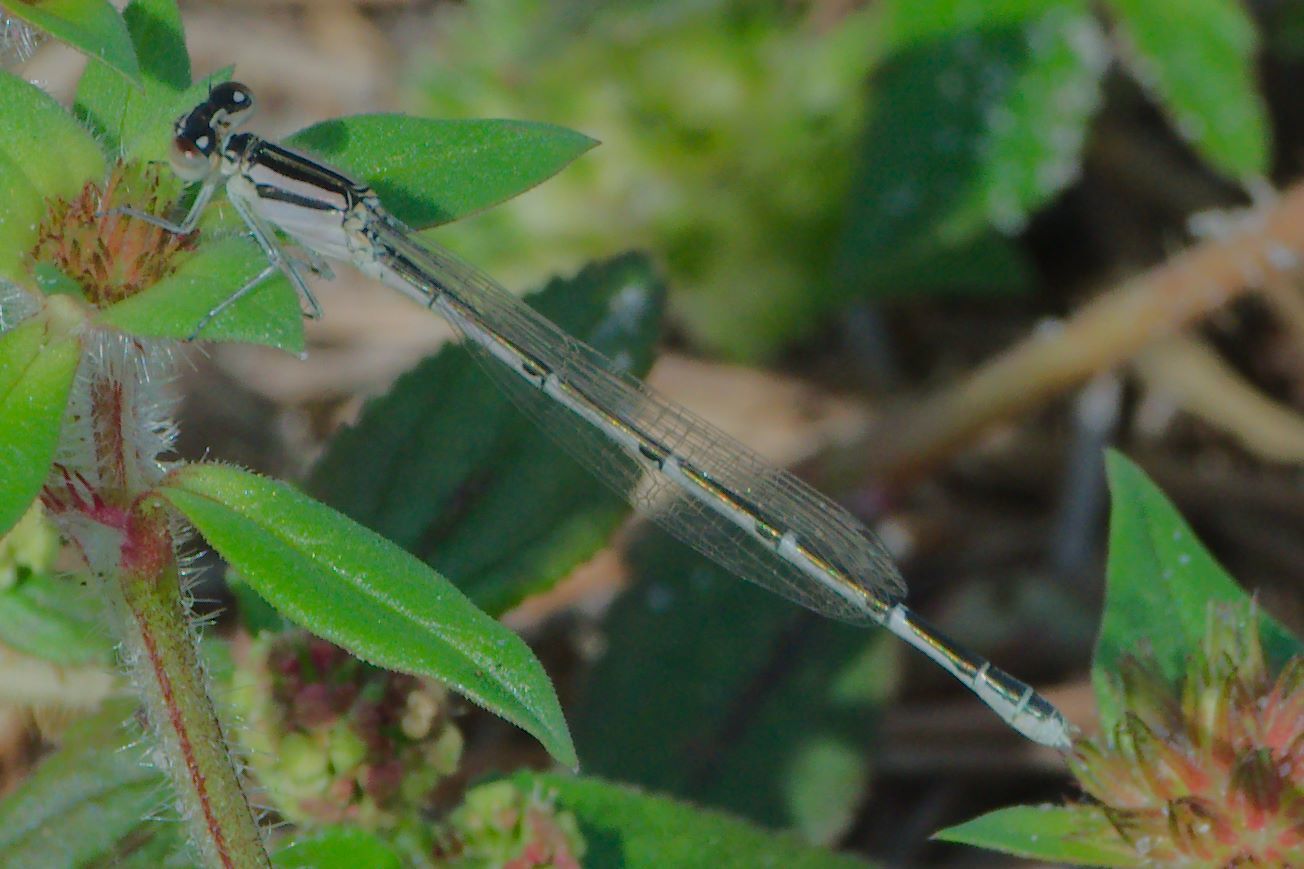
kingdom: Animalia
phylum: Arthropoda
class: Insecta
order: Odonata
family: Coenagrionidae
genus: Enallagma
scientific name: Enallagma civile
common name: Damselfly
